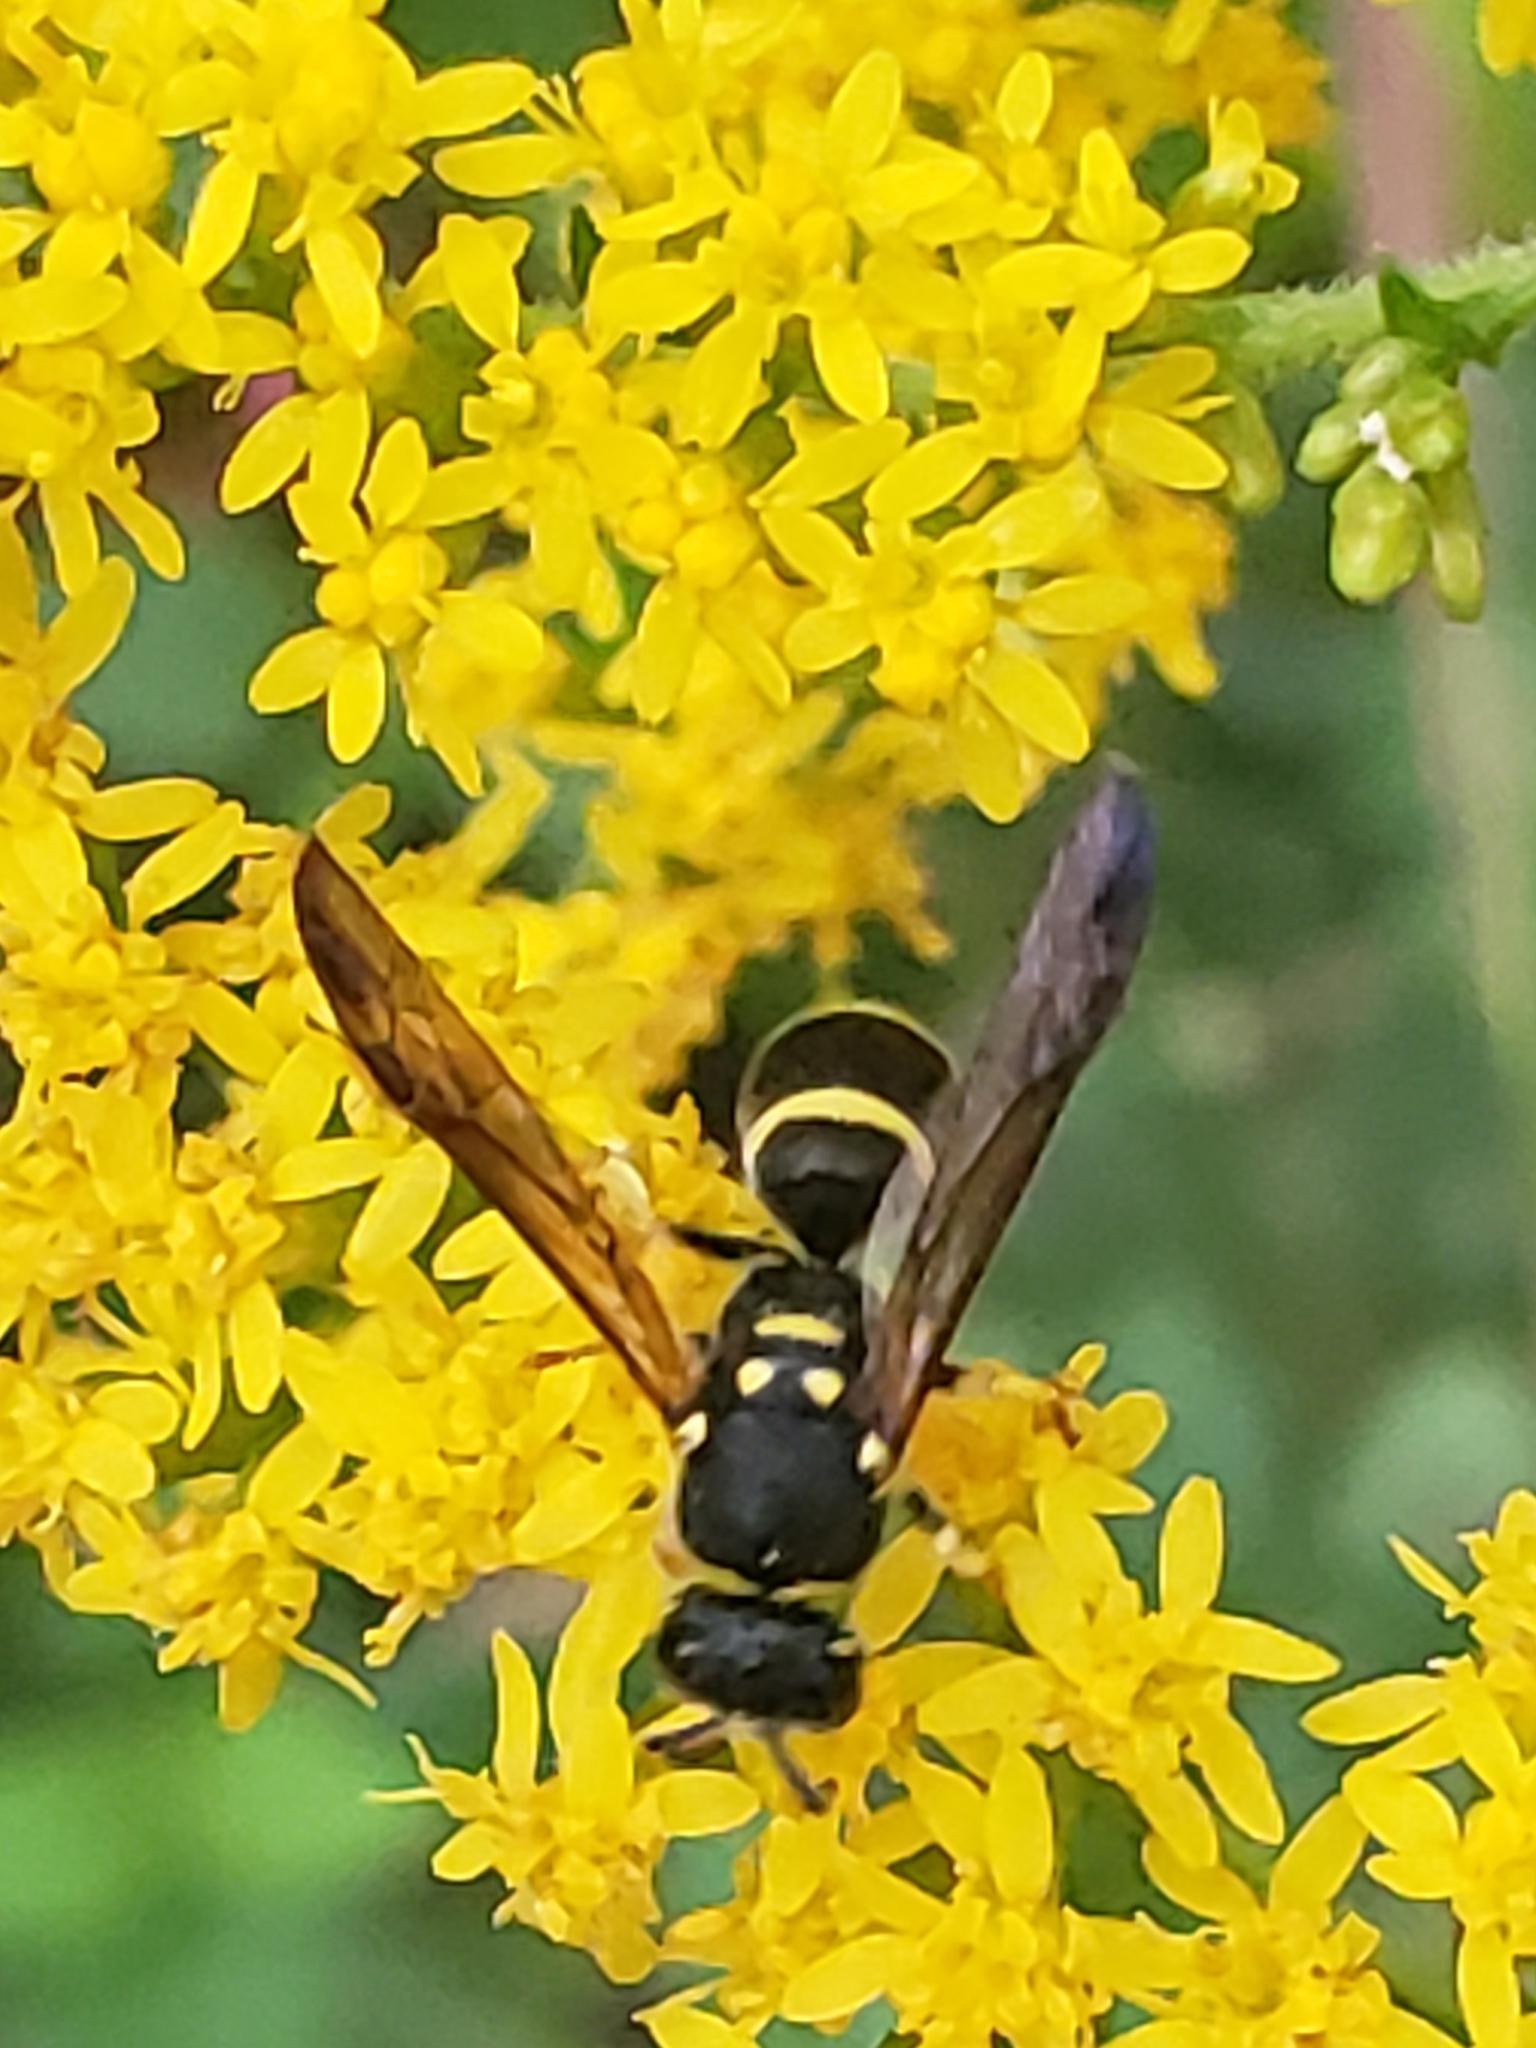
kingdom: Animalia
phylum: Arthropoda
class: Insecta
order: Hymenoptera
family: Vespidae
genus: Ancistrocerus
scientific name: Ancistrocerus adiabatus
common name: Bramble mason wasp
